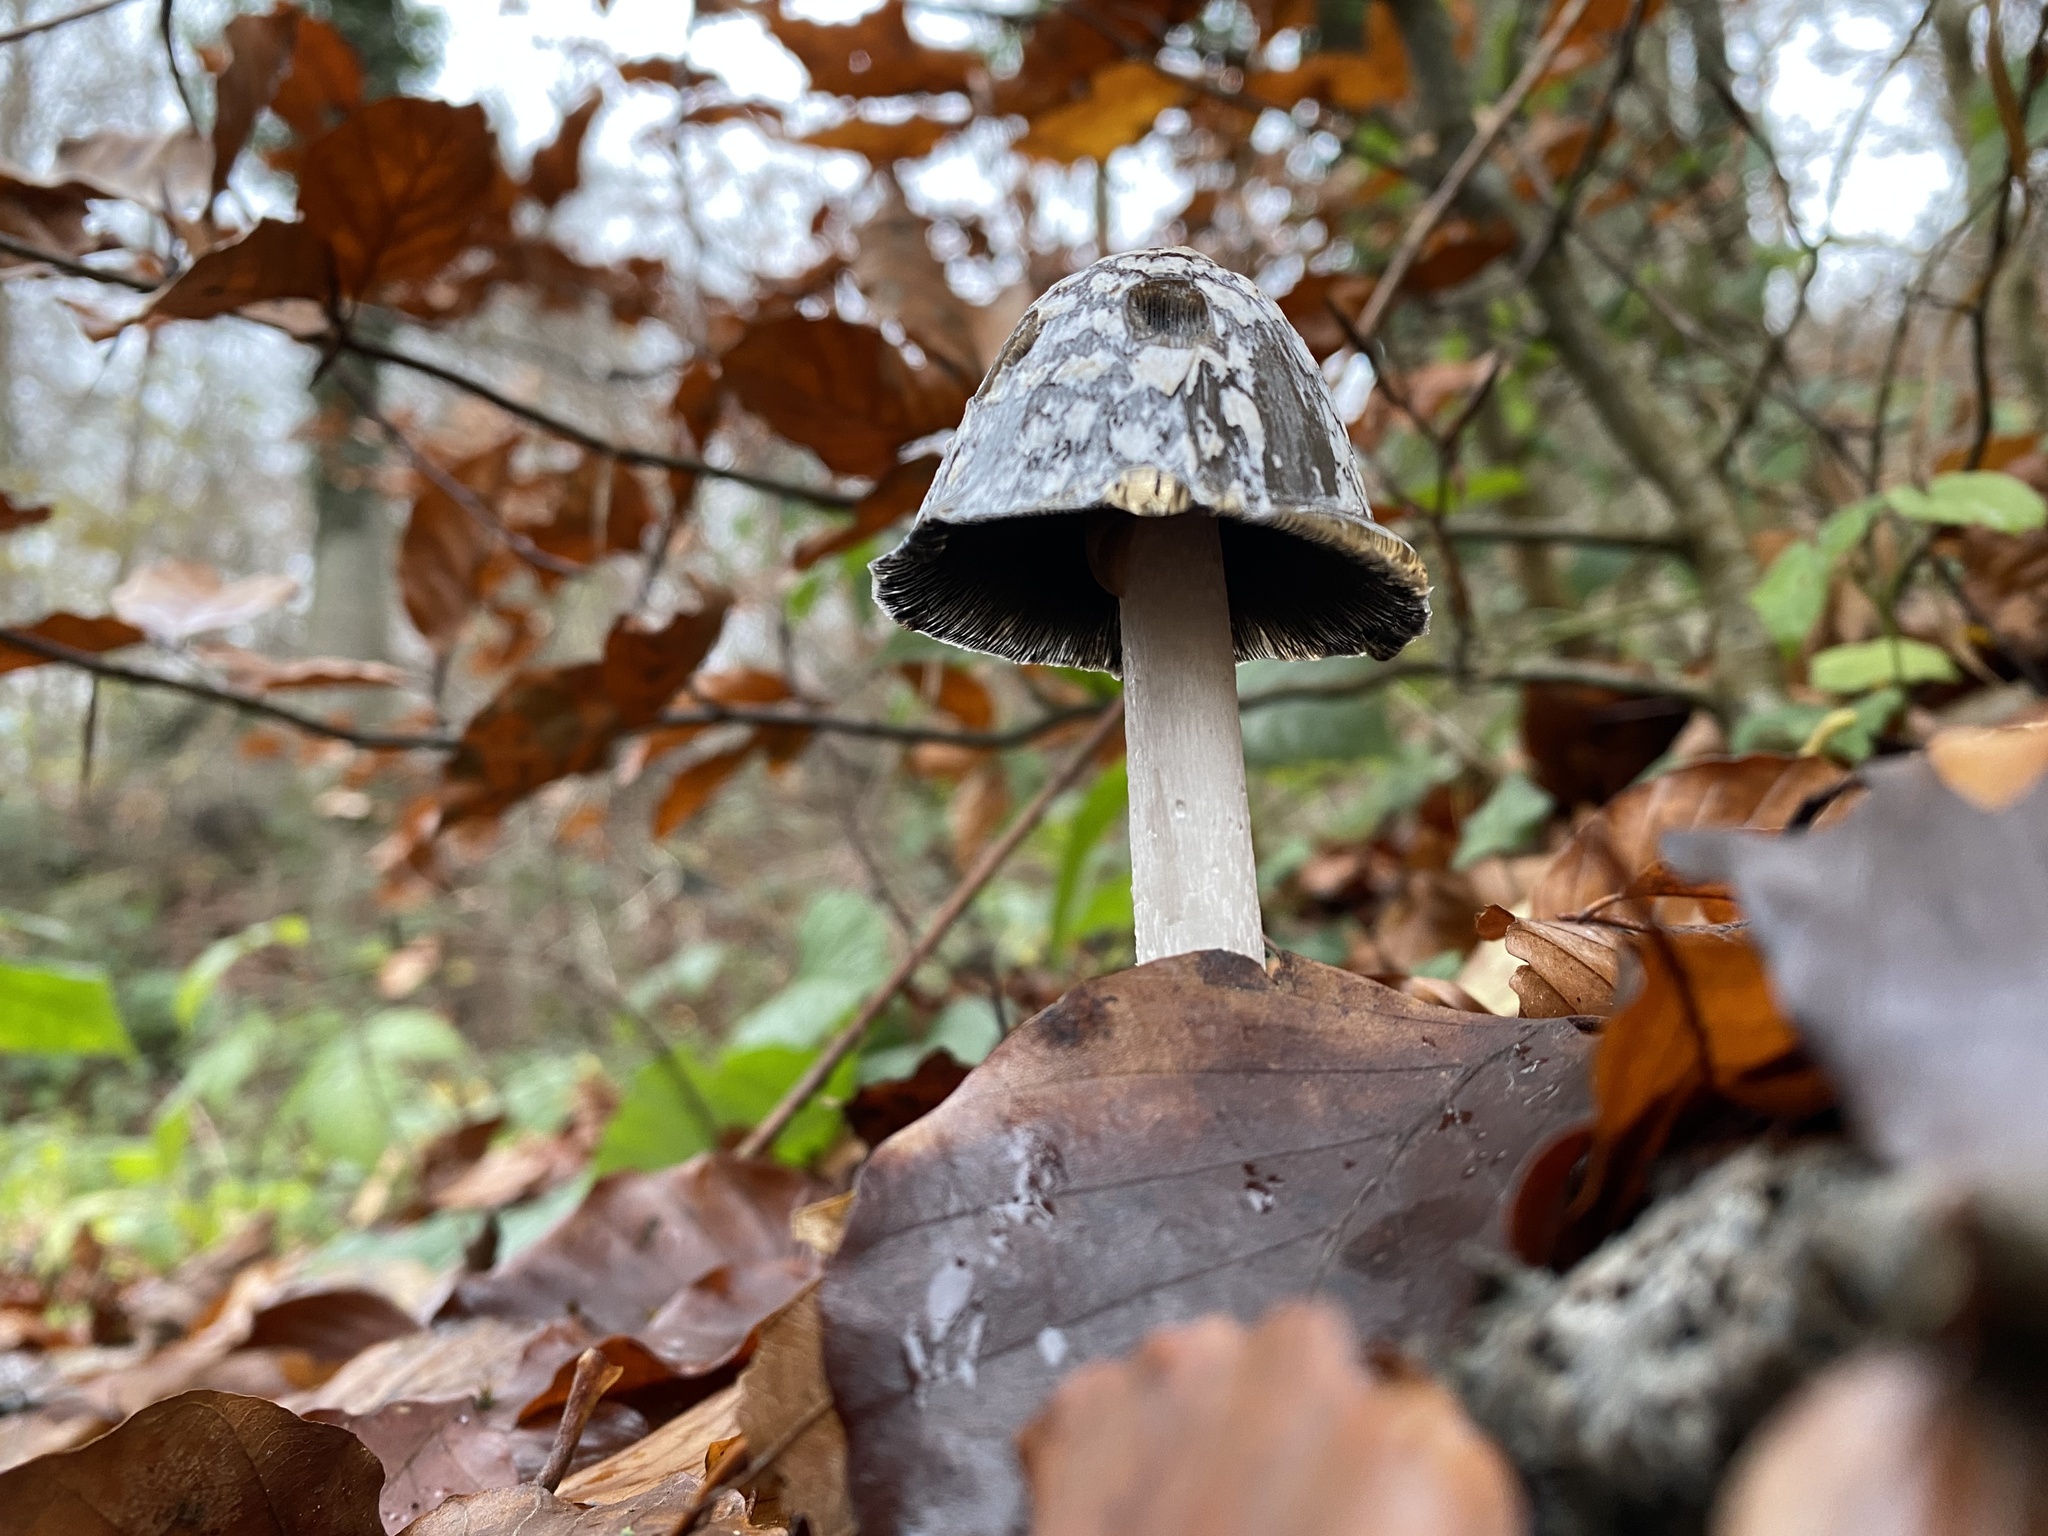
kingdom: Fungi
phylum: Basidiomycota
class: Agaricomycetes
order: Agaricales
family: Psathyrellaceae
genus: Coprinopsis
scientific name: Coprinopsis picacea
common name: Magpie inkcap
